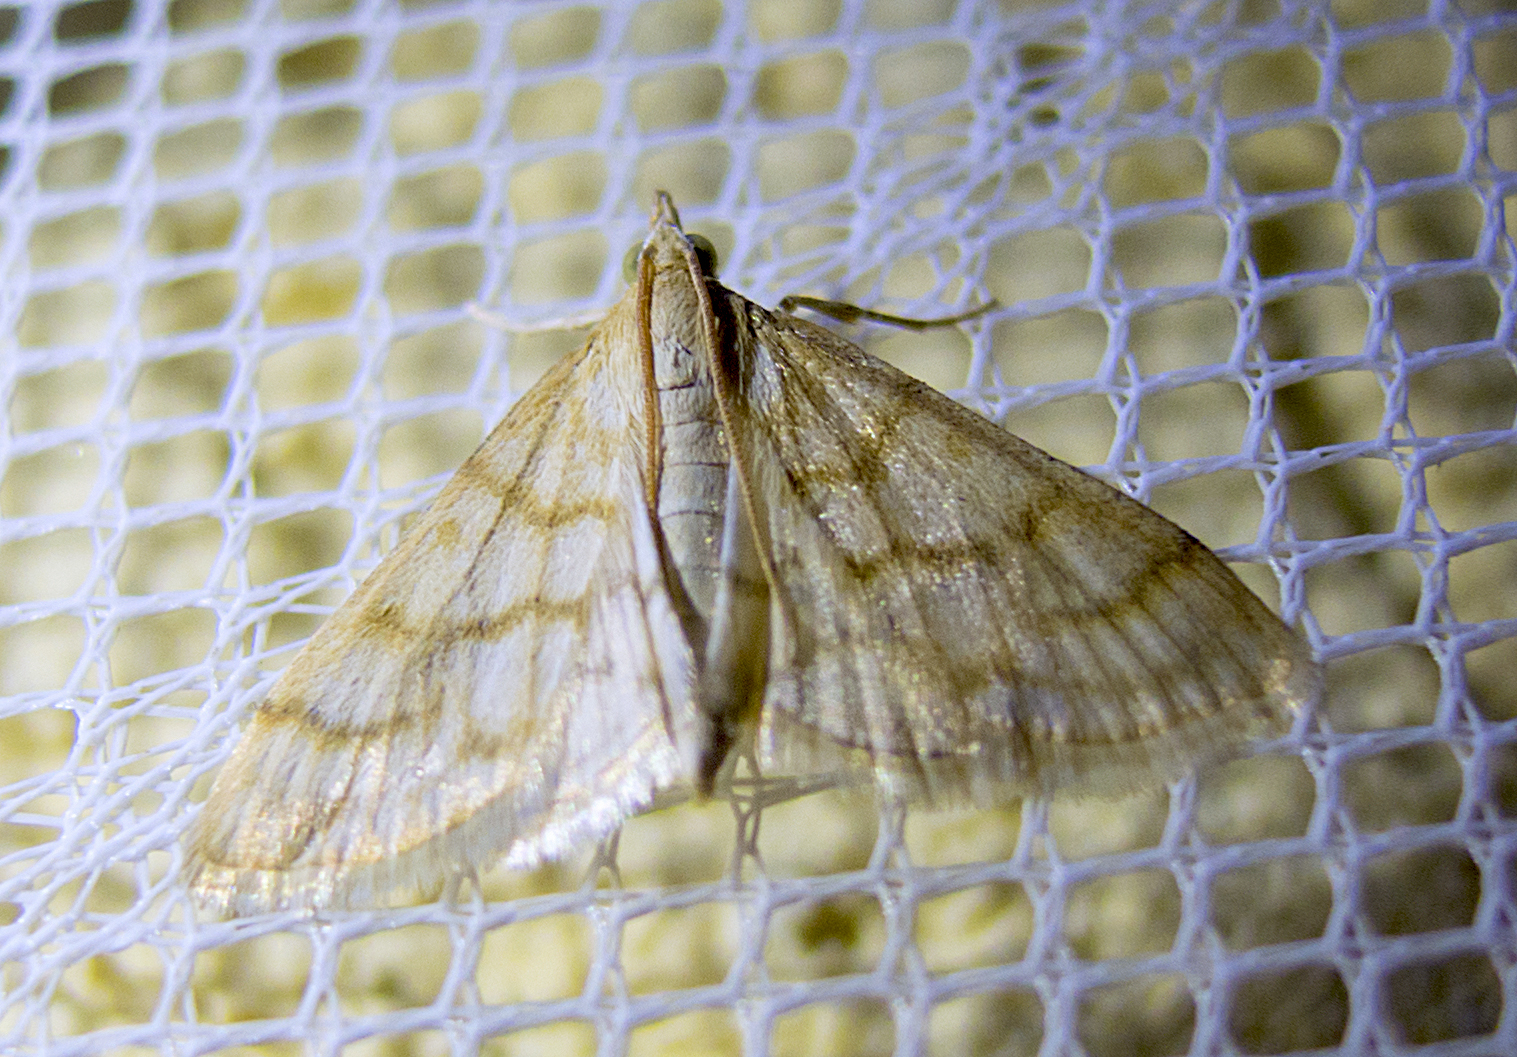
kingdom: Animalia
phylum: Arthropoda
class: Insecta
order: Lepidoptera
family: Crambidae
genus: Paracorsia
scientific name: Paracorsia repandalis
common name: Mullein moth
